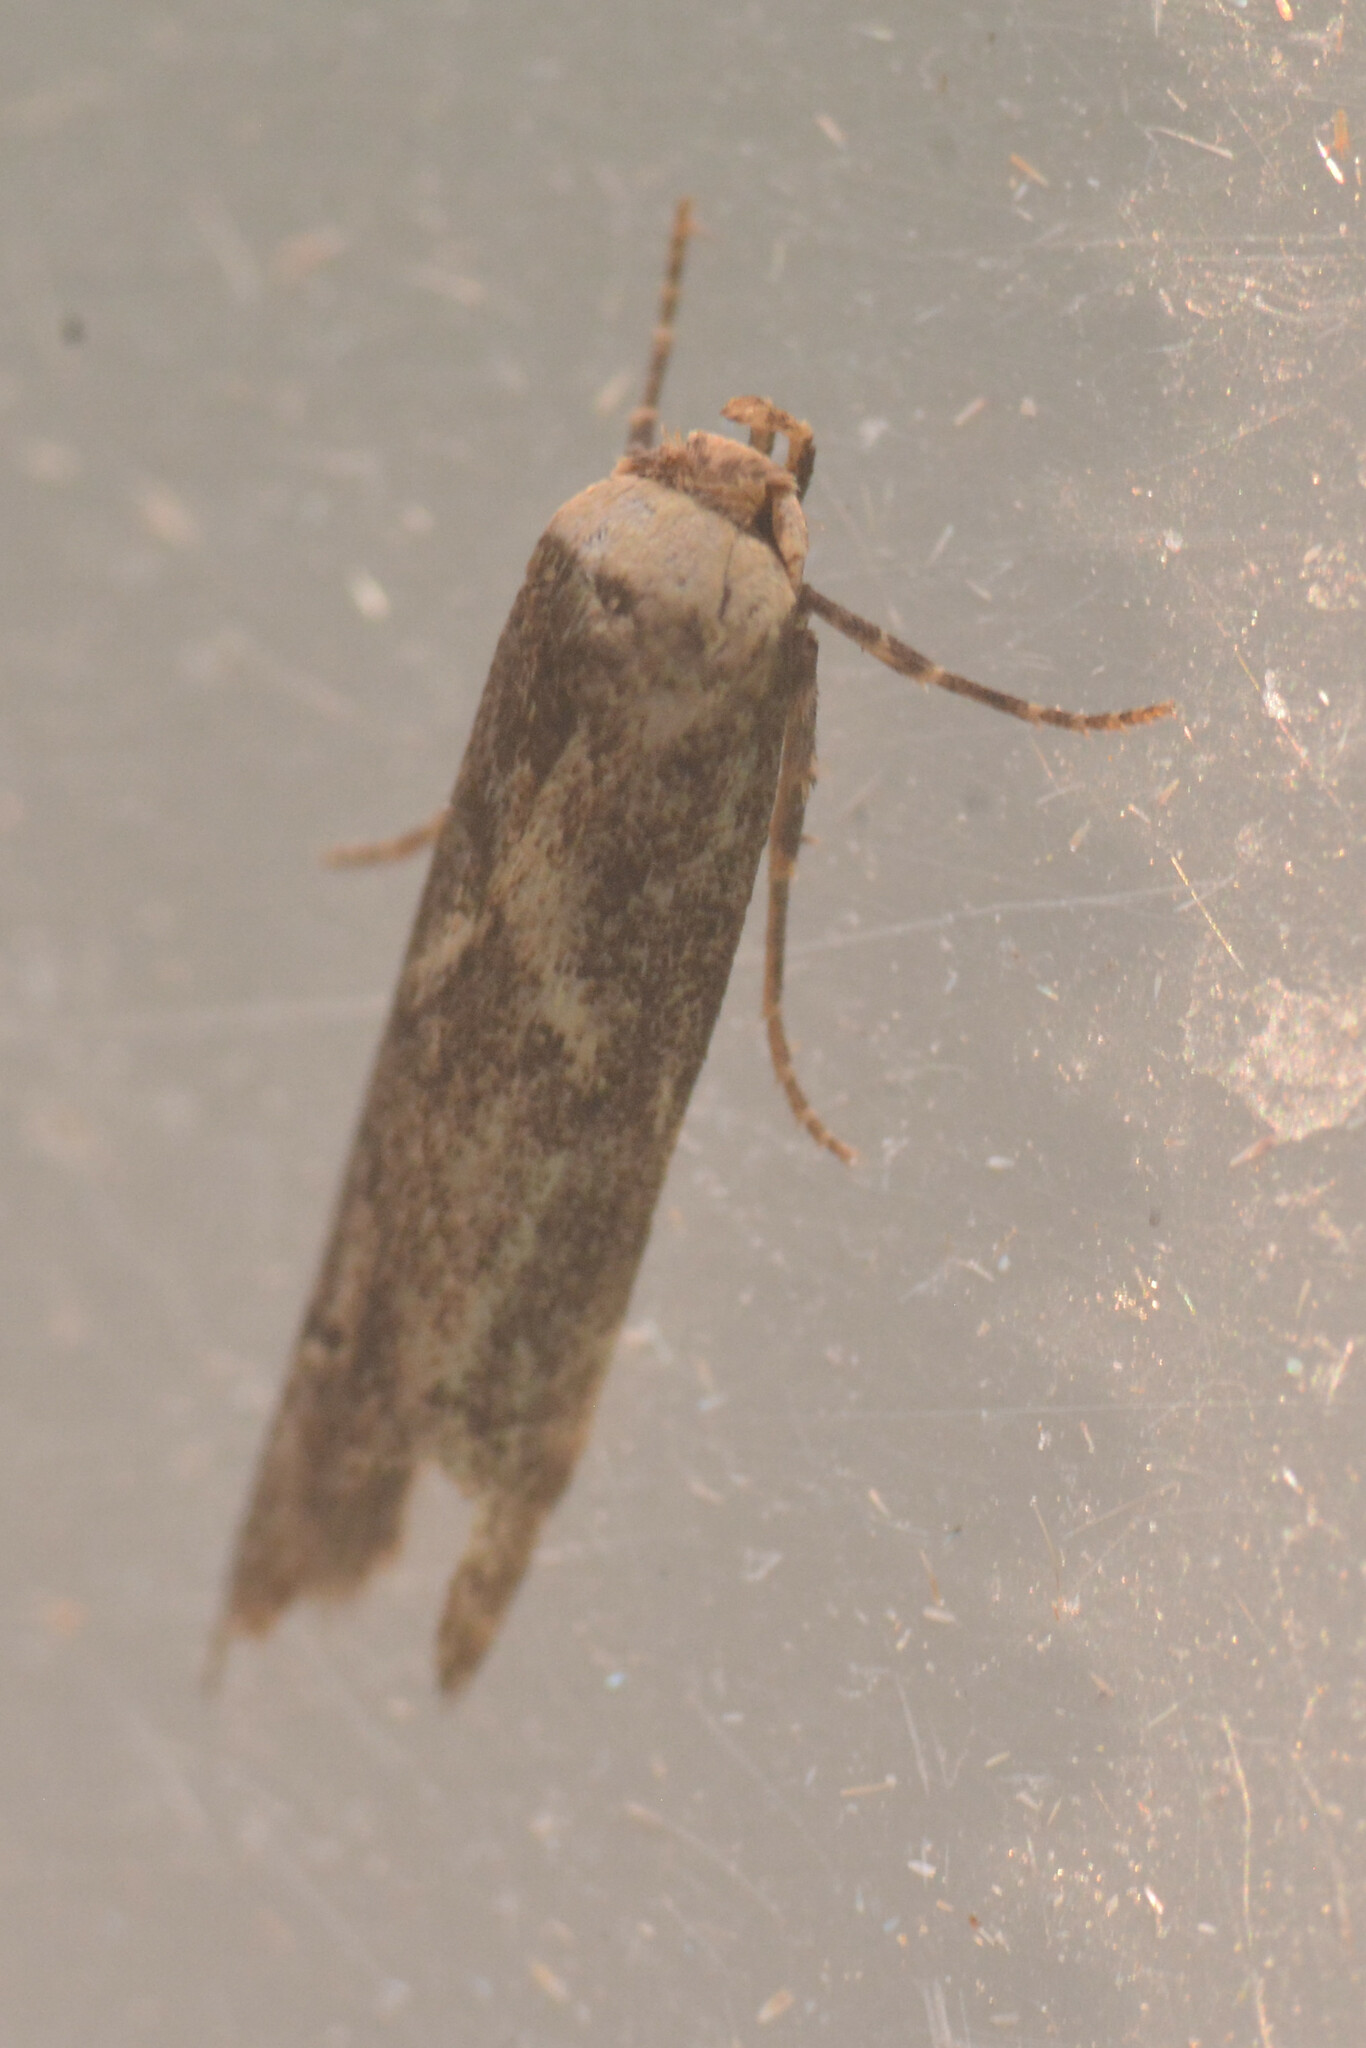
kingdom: Animalia
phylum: Arthropoda
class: Insecta
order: Lepidoptera
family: Blastobasidae
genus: Blastobasis
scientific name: Blastobasis adustella
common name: Dingy dowd
